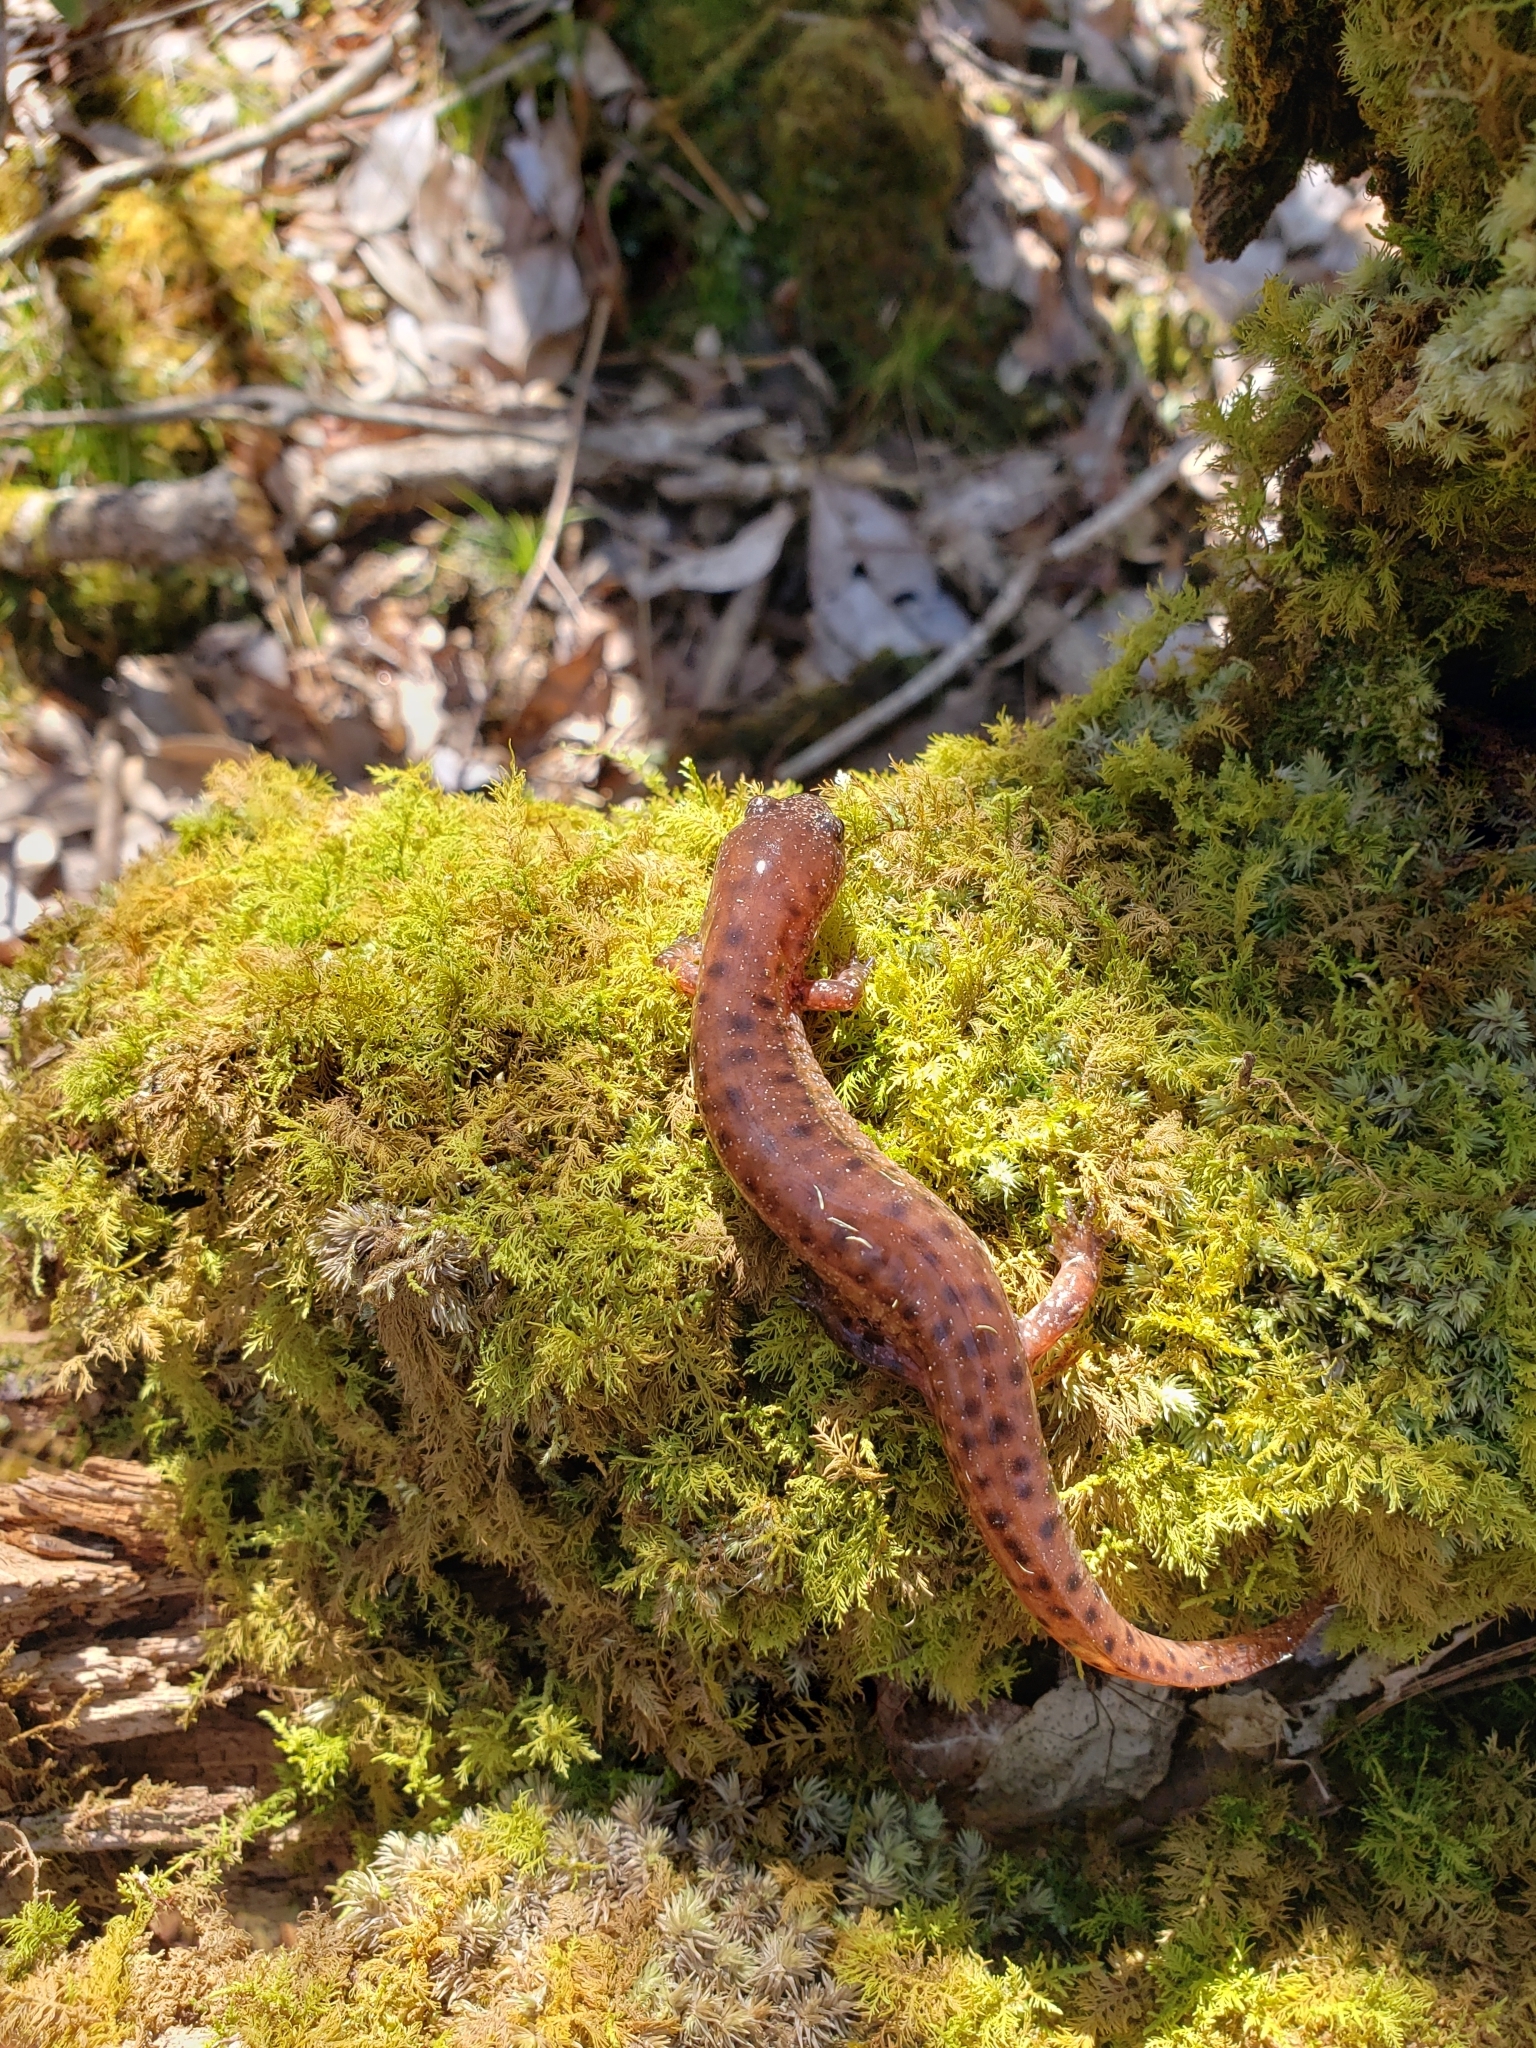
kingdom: Animalia
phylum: Chordata
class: Amphibia
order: Caudata
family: Plethodontidae
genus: Pseudotriton
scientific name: Pseudotriton ruber
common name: Red salamander
